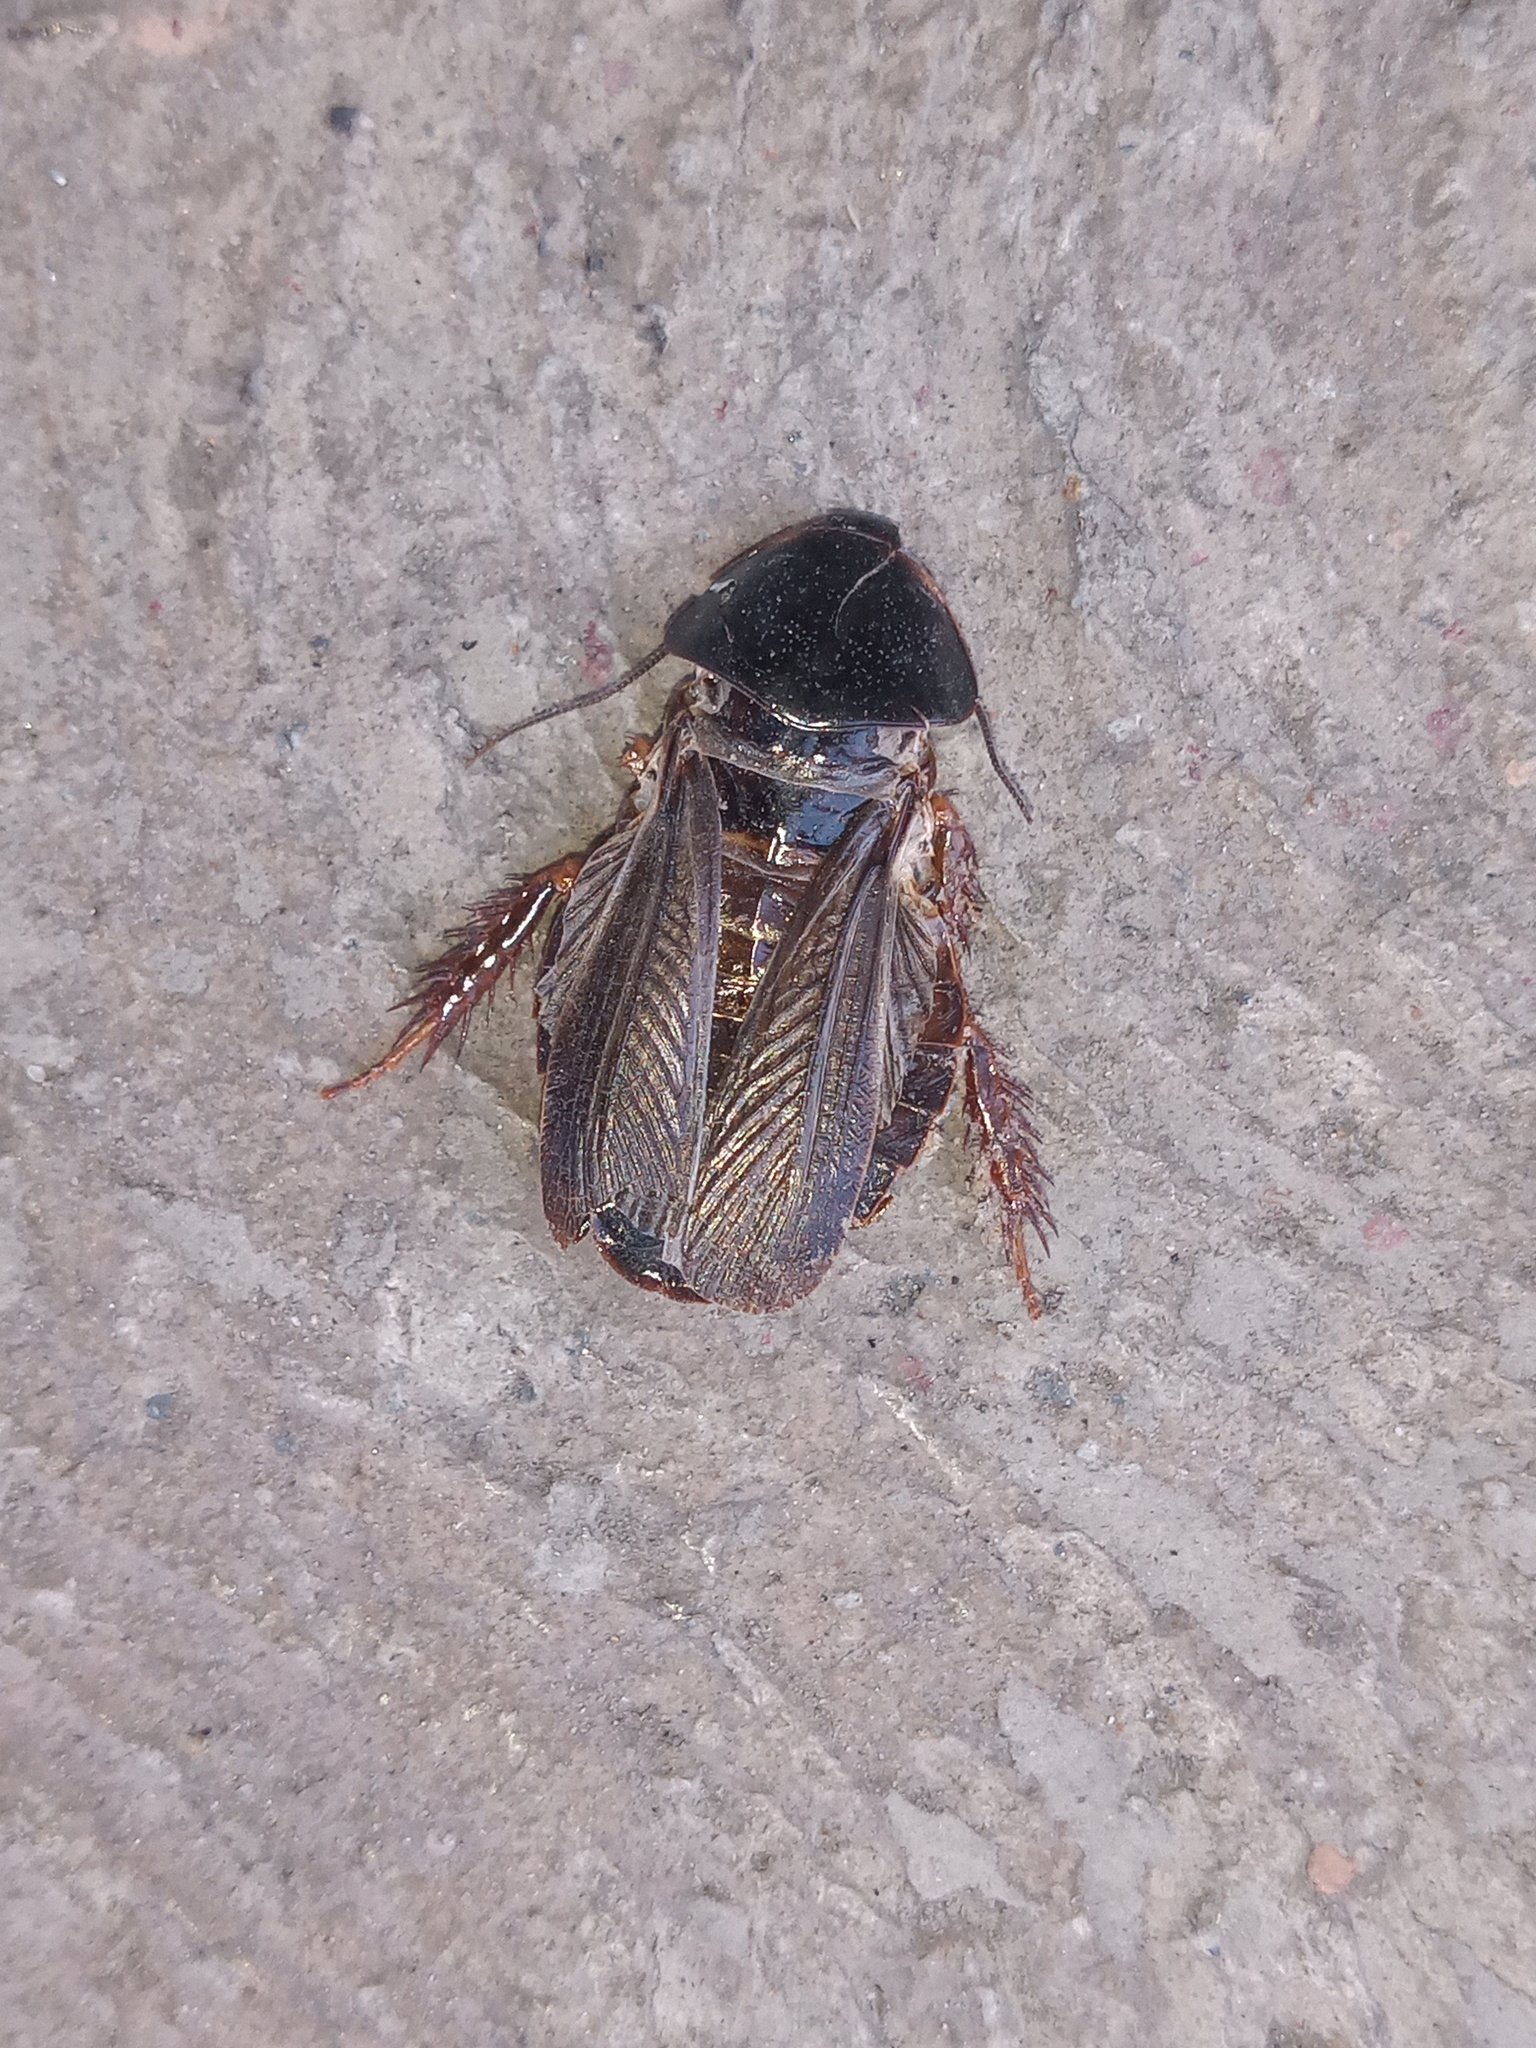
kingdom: Animalia
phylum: Arthropoda
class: Insecta
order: Blattodea
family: Blaberidae
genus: Pycnoscelus
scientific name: Pycnoscelus surinamensis
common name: Surinam cockroach
